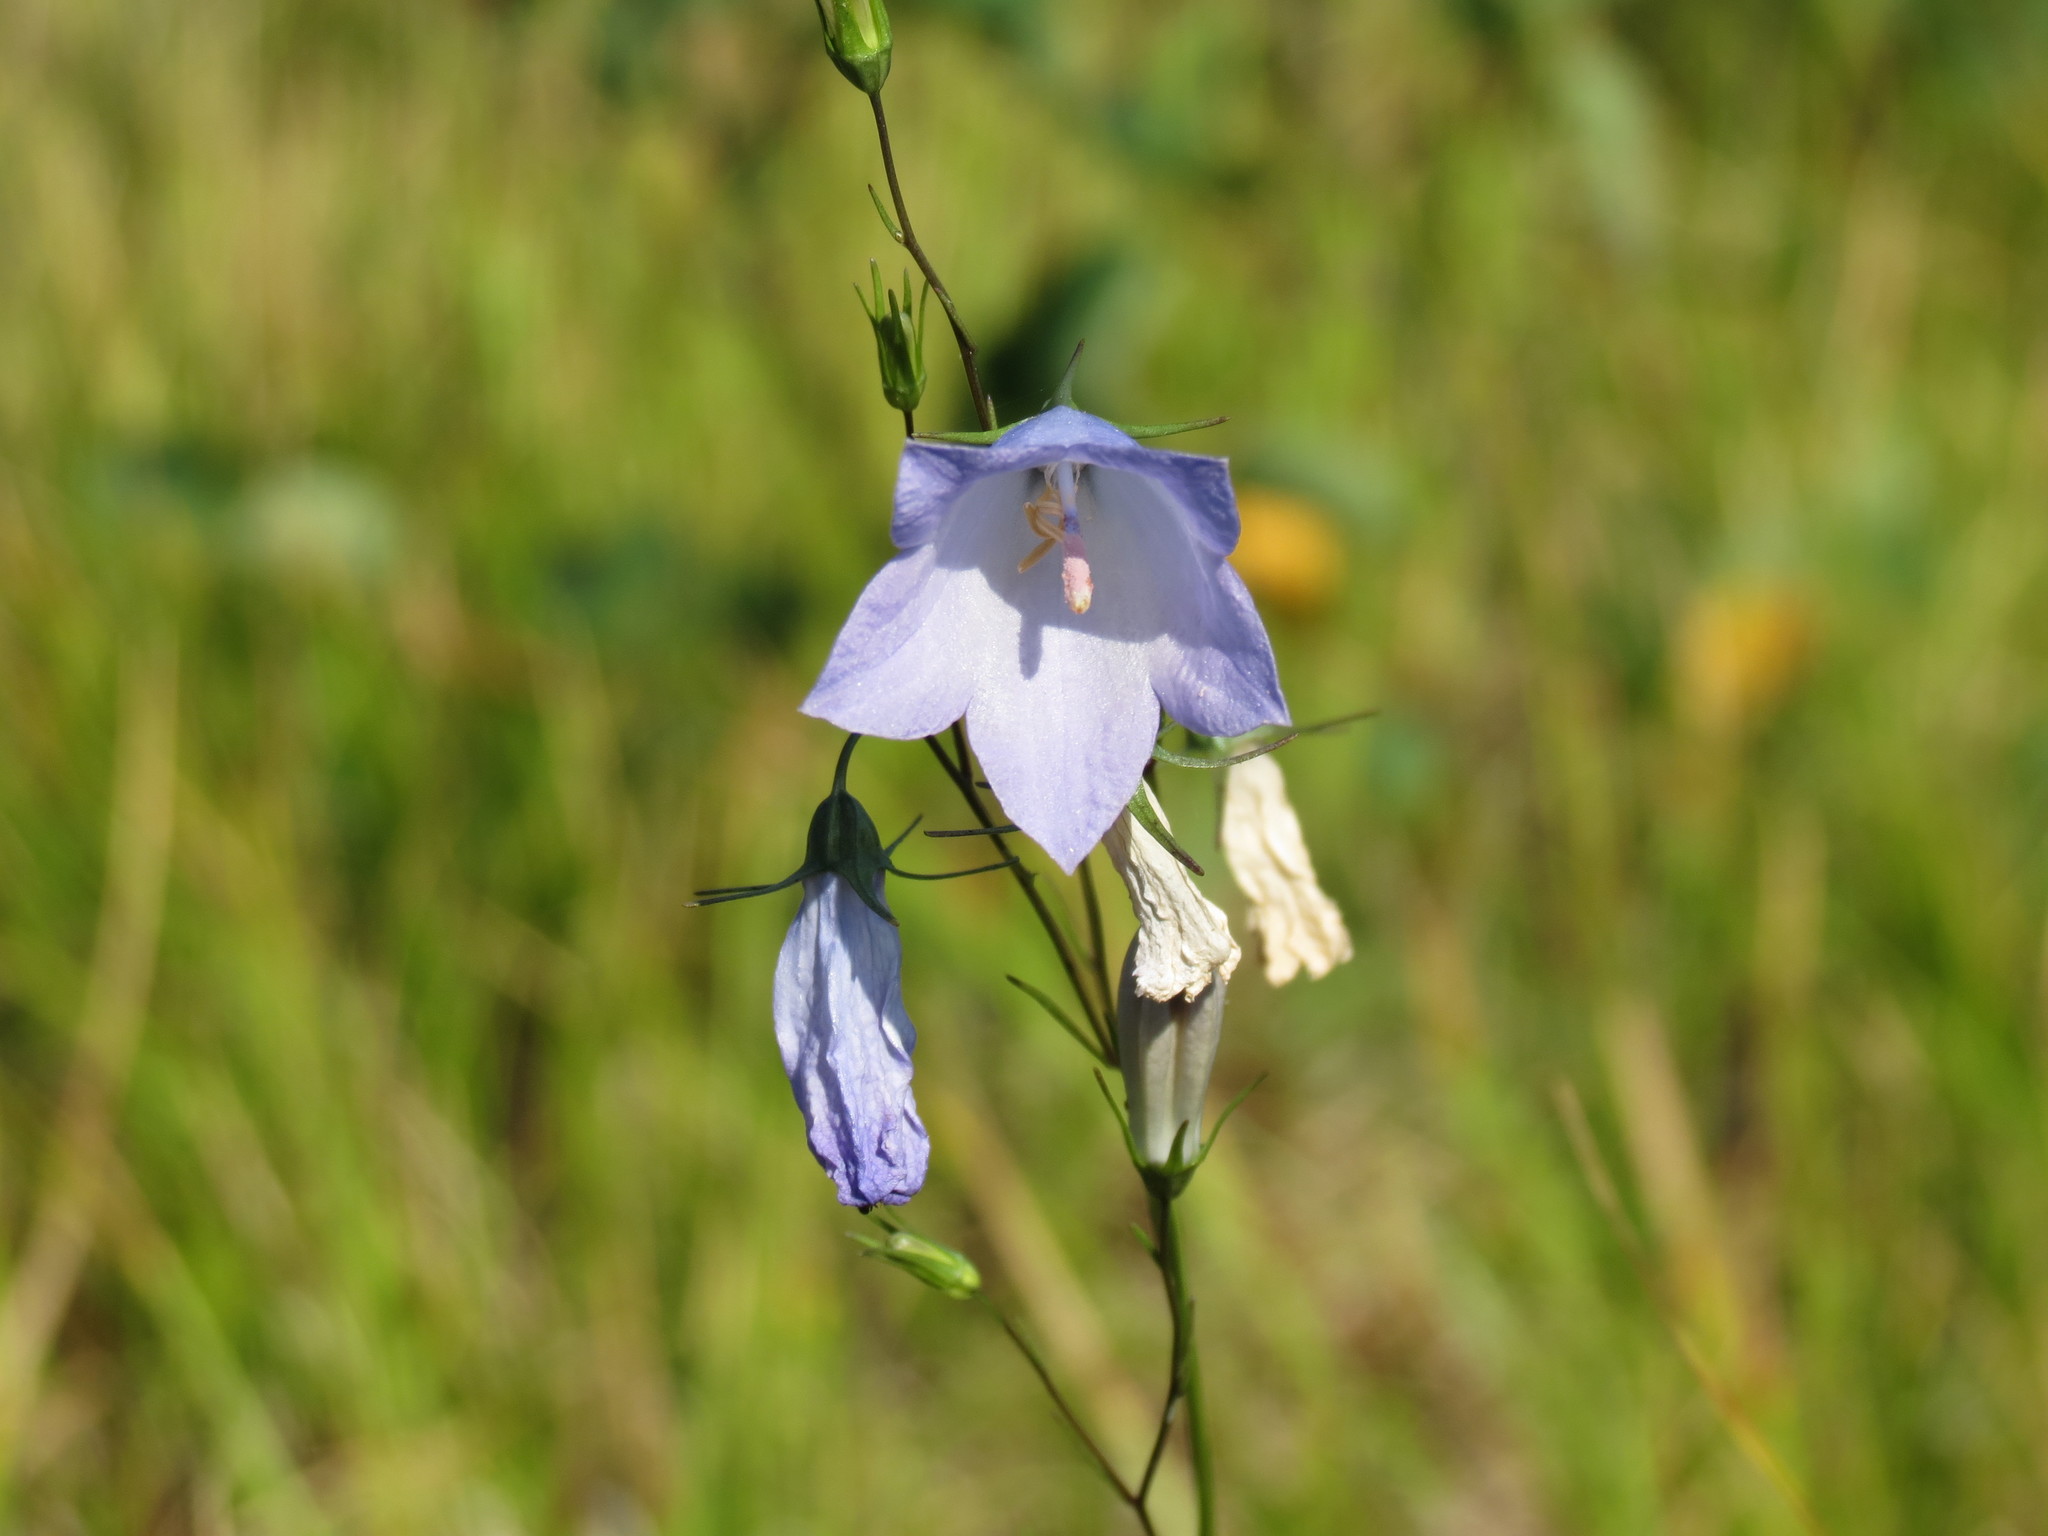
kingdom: Plantae
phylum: Tracheophyta
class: Magnoliopsida
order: Asterales
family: Campanulaceae
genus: Campanula
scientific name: Campanula giesekiana
